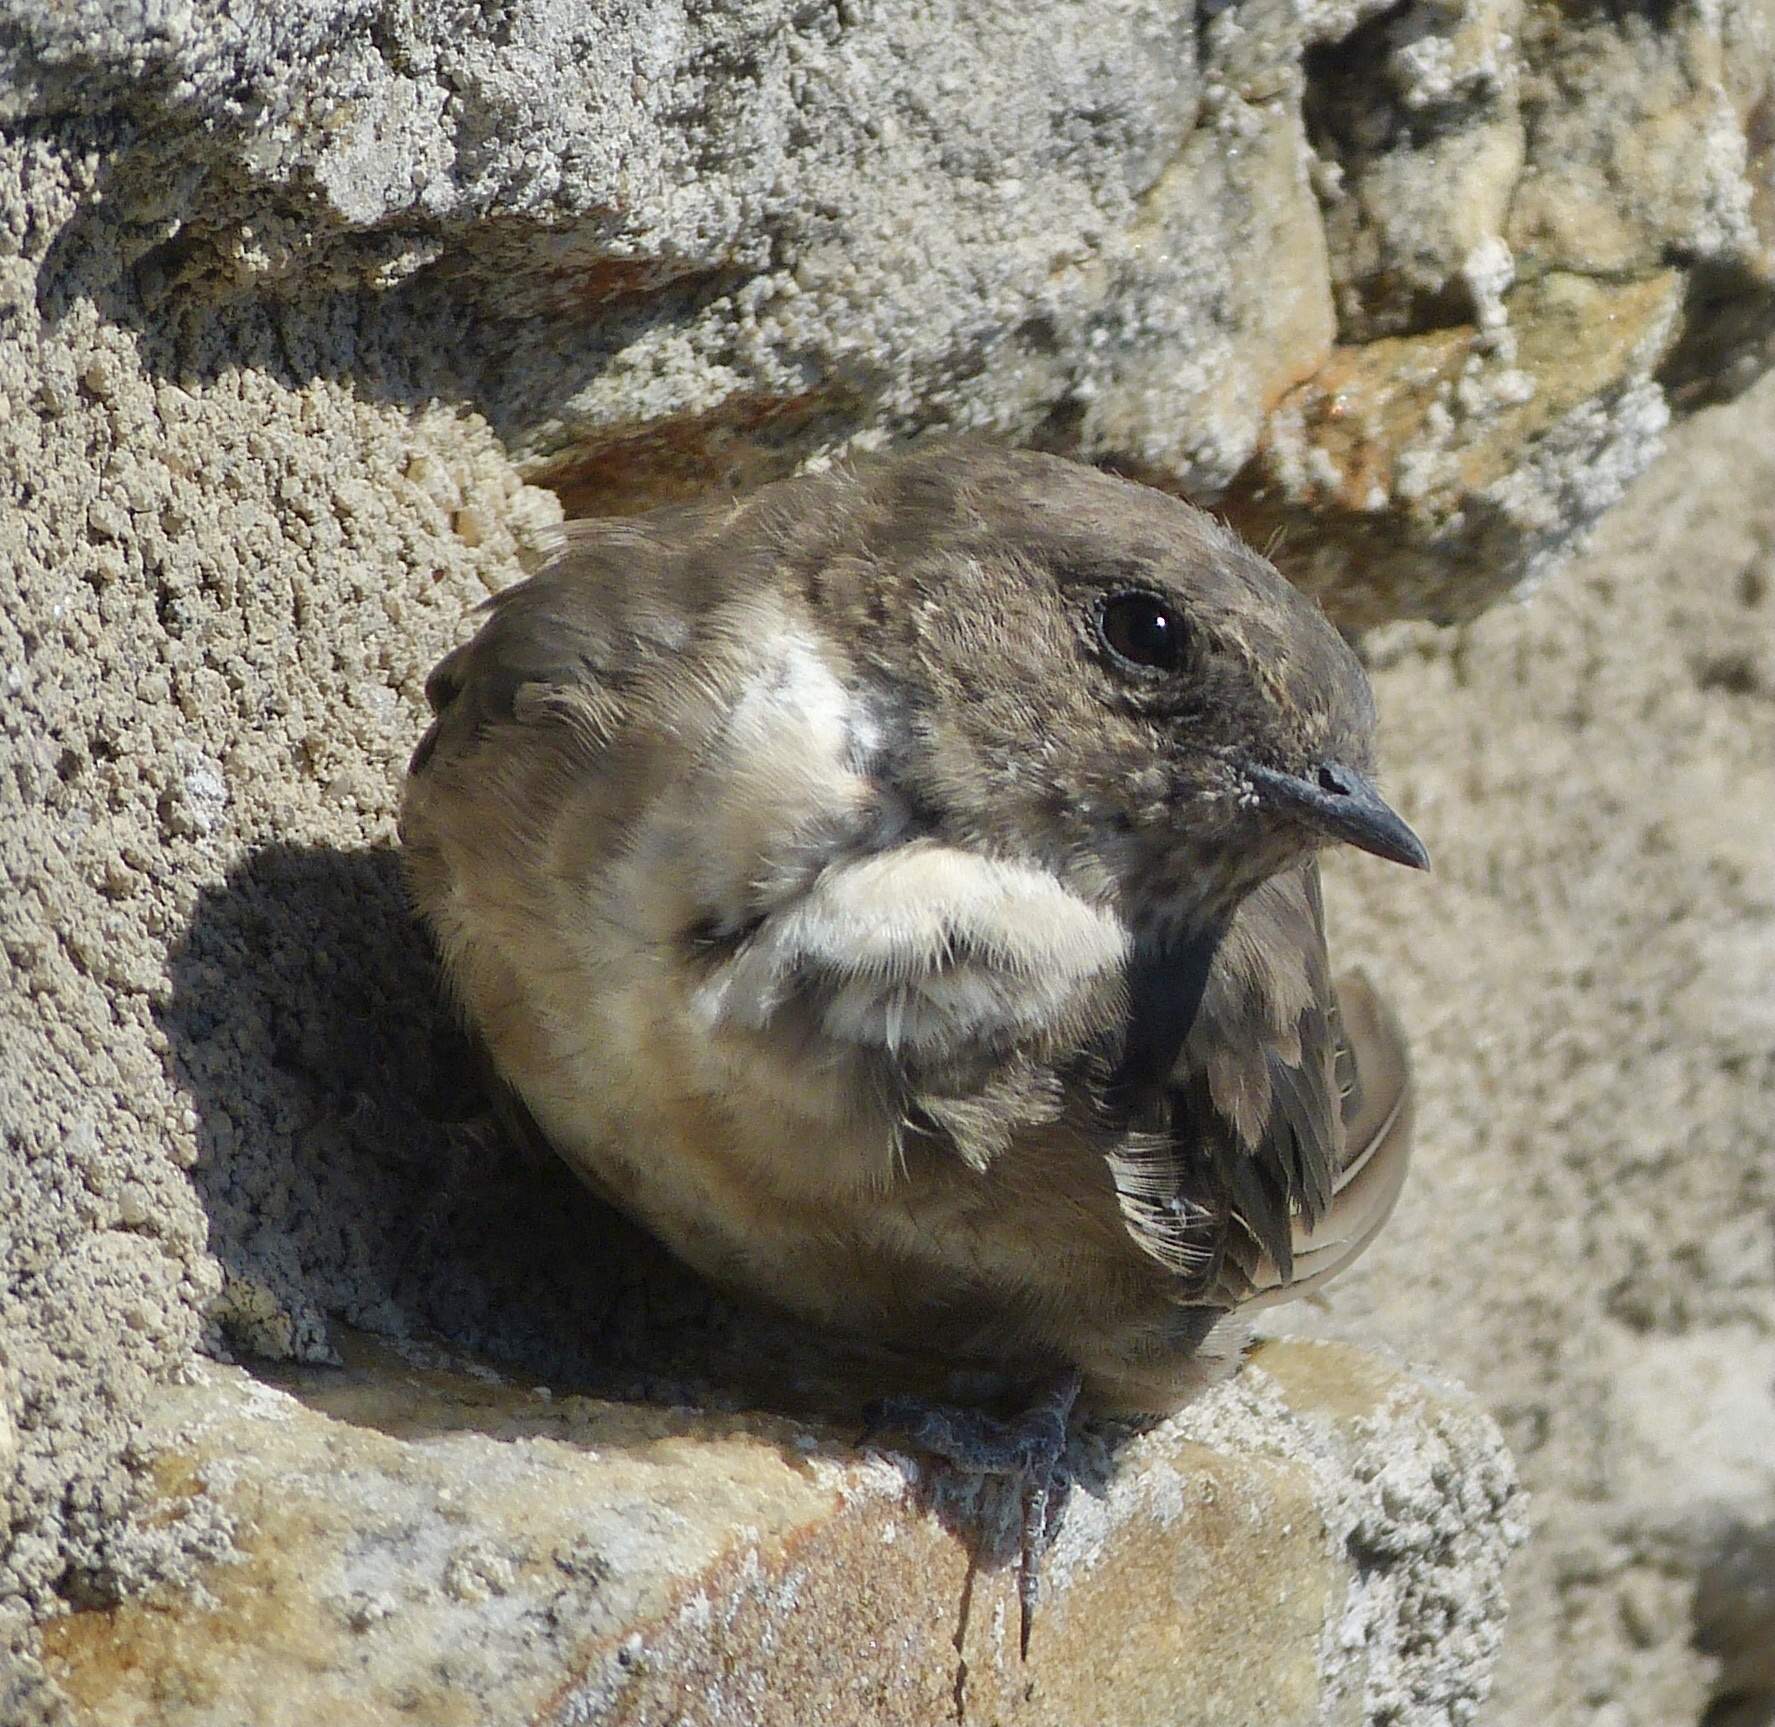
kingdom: Animalia
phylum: Chordata
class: Aves
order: Passeriformes
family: Hirundinidae
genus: Ptyonoprogne
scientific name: Ptyonoprogne rupestris
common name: Eurasian crag martin
